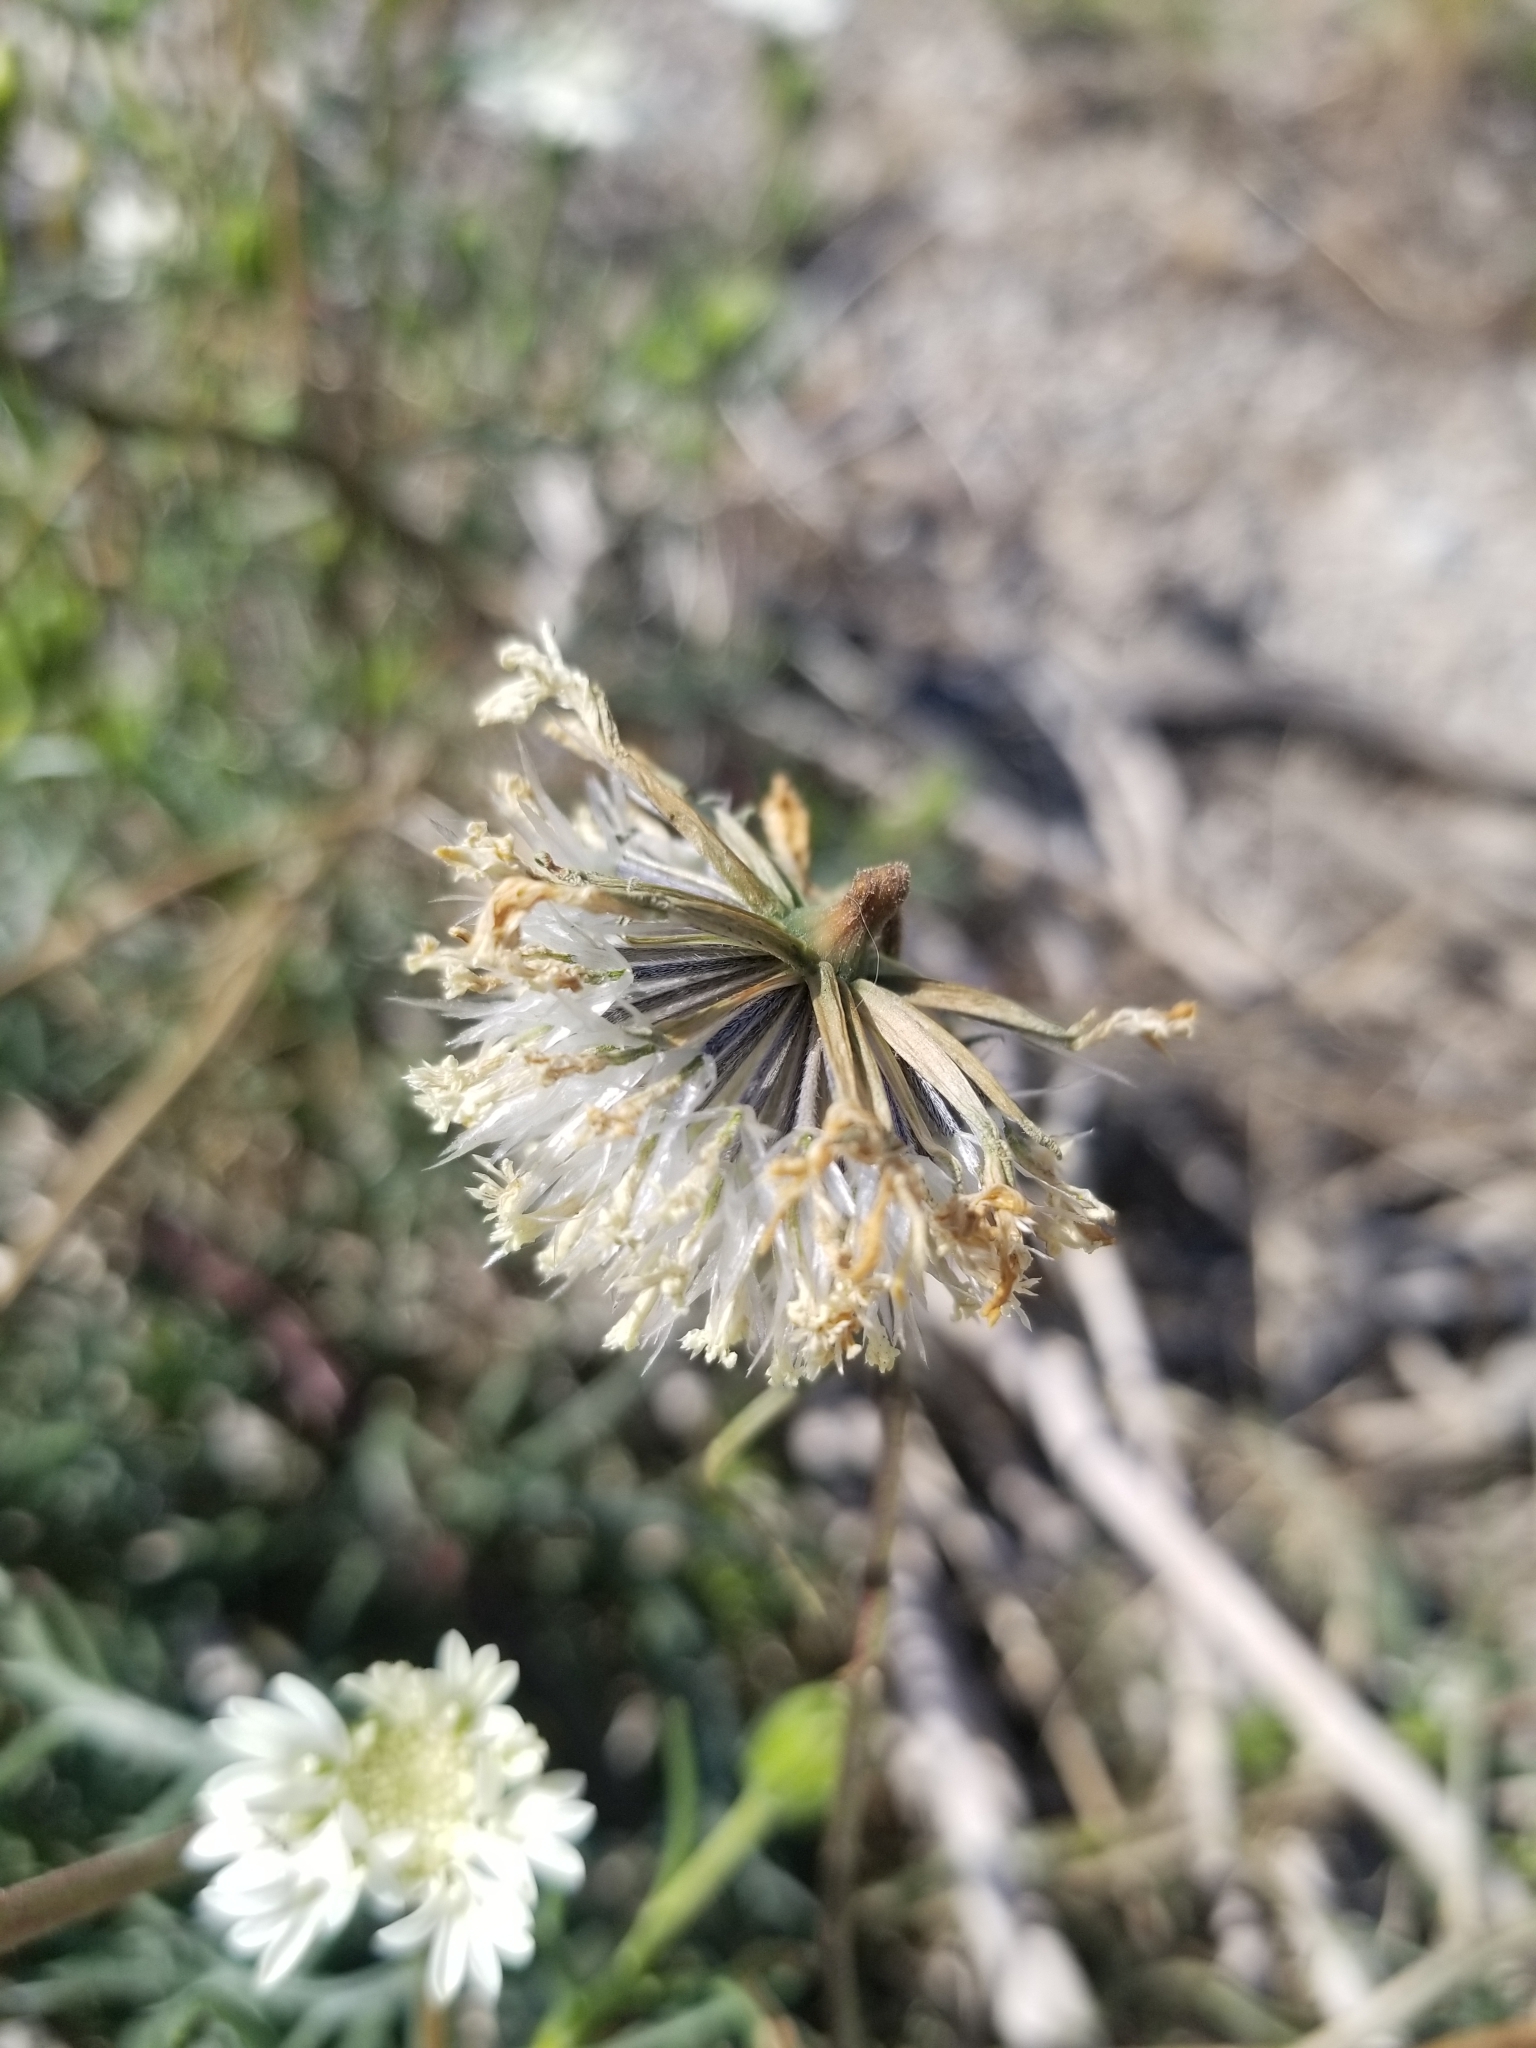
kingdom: Plantae
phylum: Tracheophyta
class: Magnoliopsida
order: Asterales
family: Asteraceae
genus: Chaenactis
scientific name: Chaenactis fremontii
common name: Fremont pincushion
